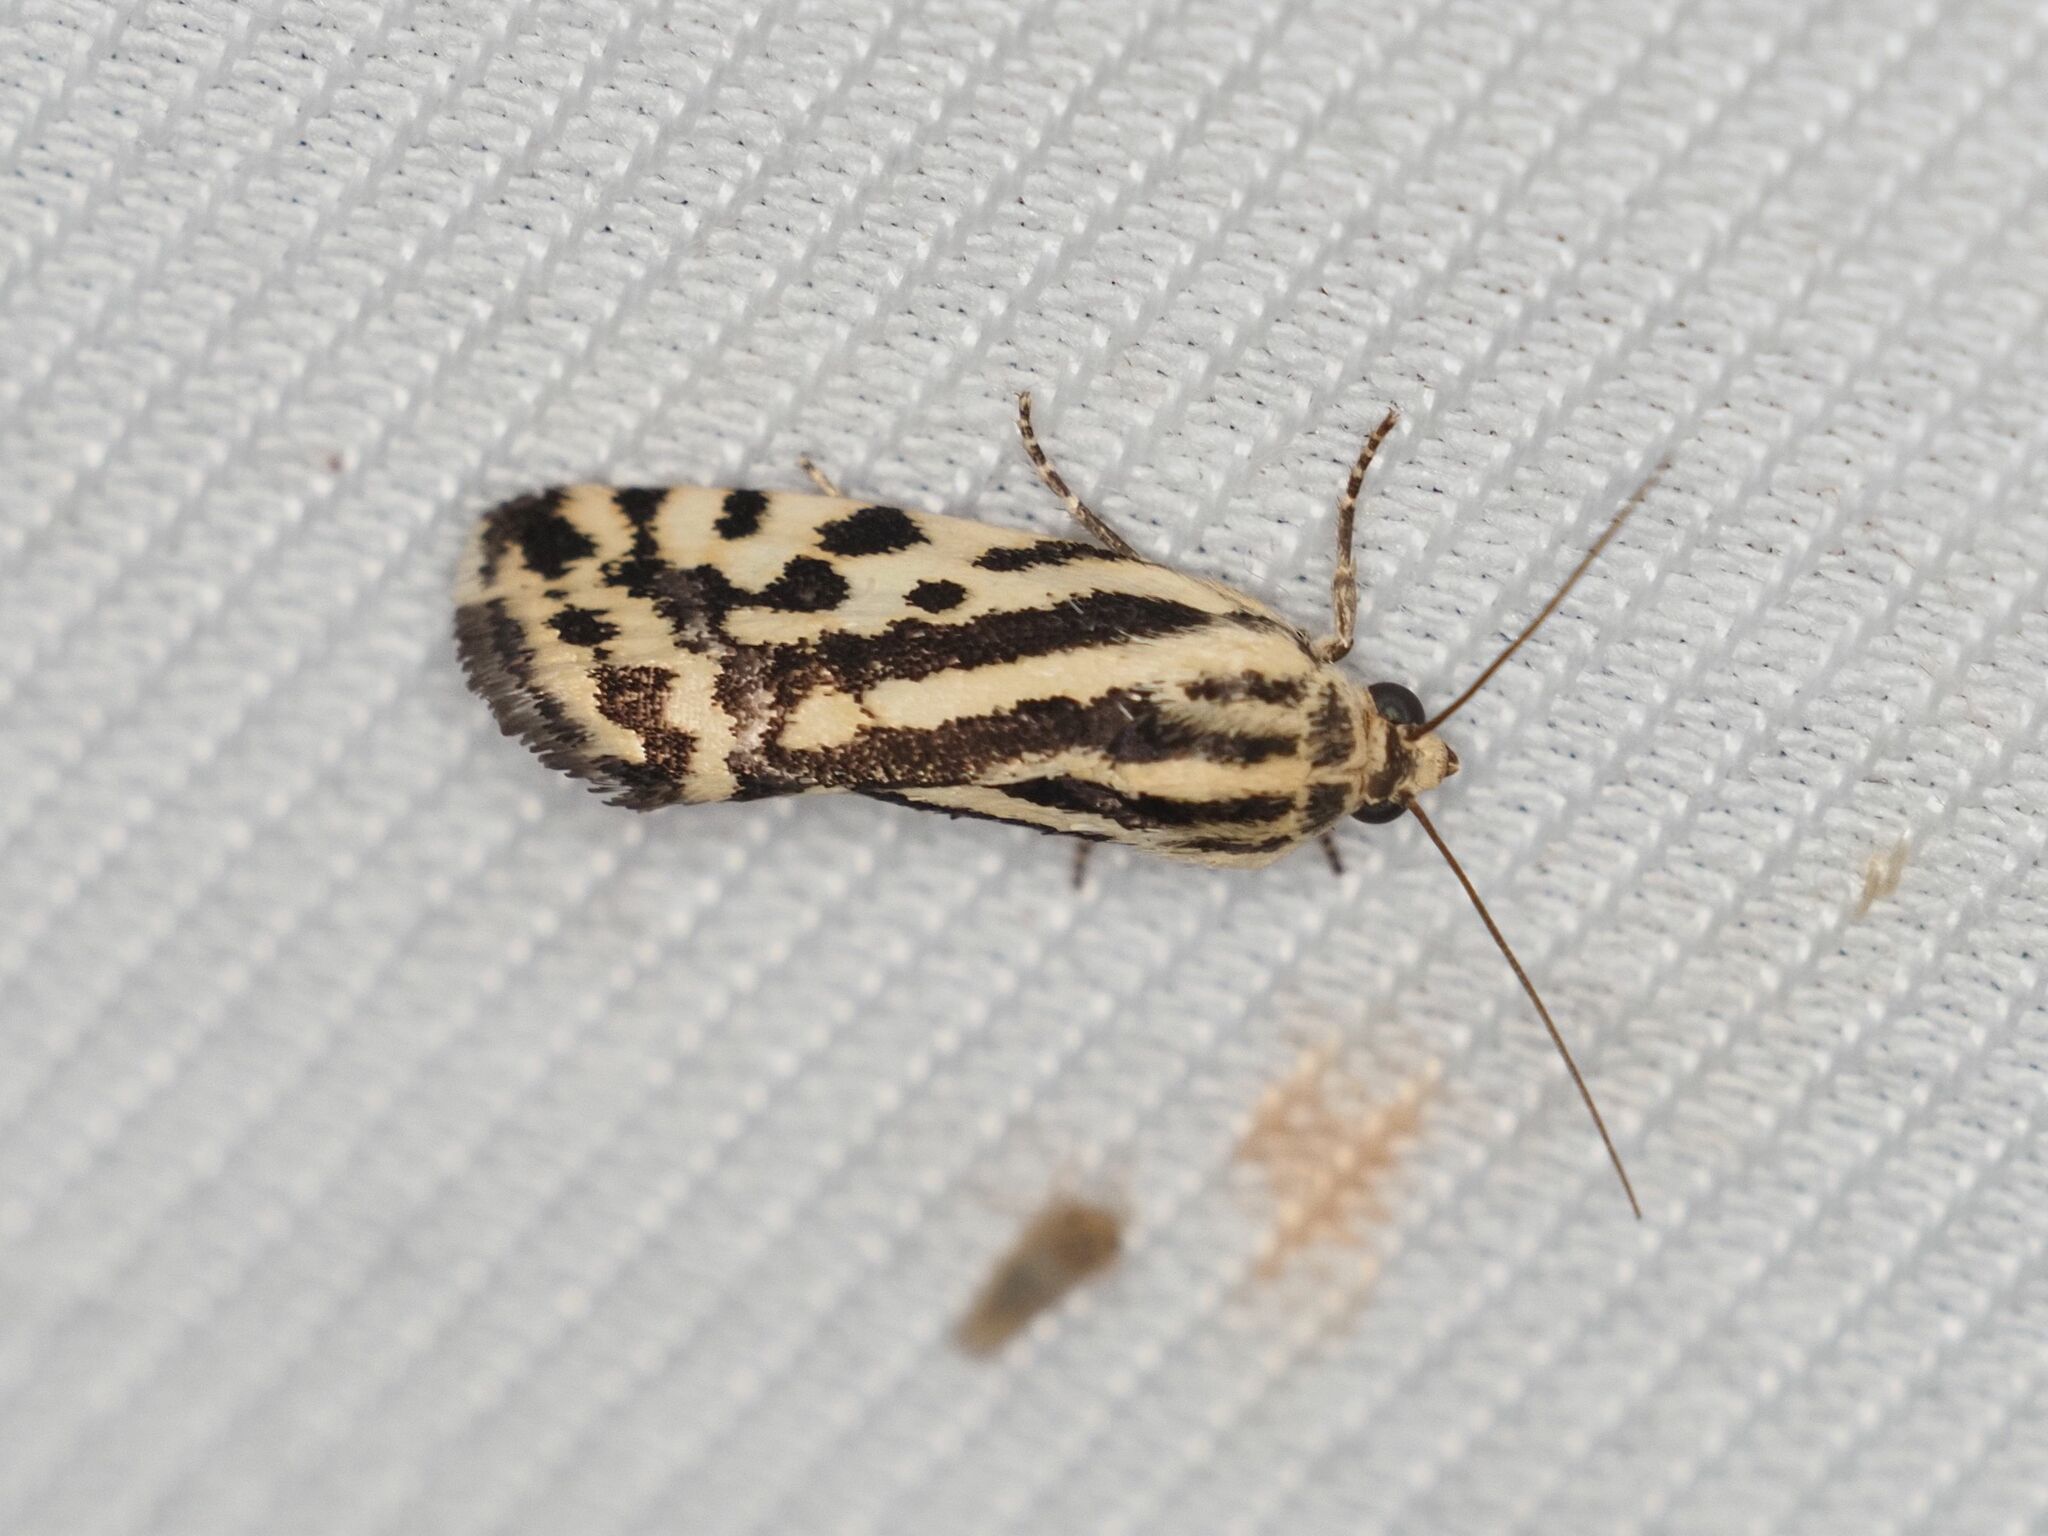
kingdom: Animalia
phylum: Arthropoda
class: Insecta
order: Lepidoptera
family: Noctuidae
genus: Acontia
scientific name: Acontia trabealis
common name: Spotted sulphur
